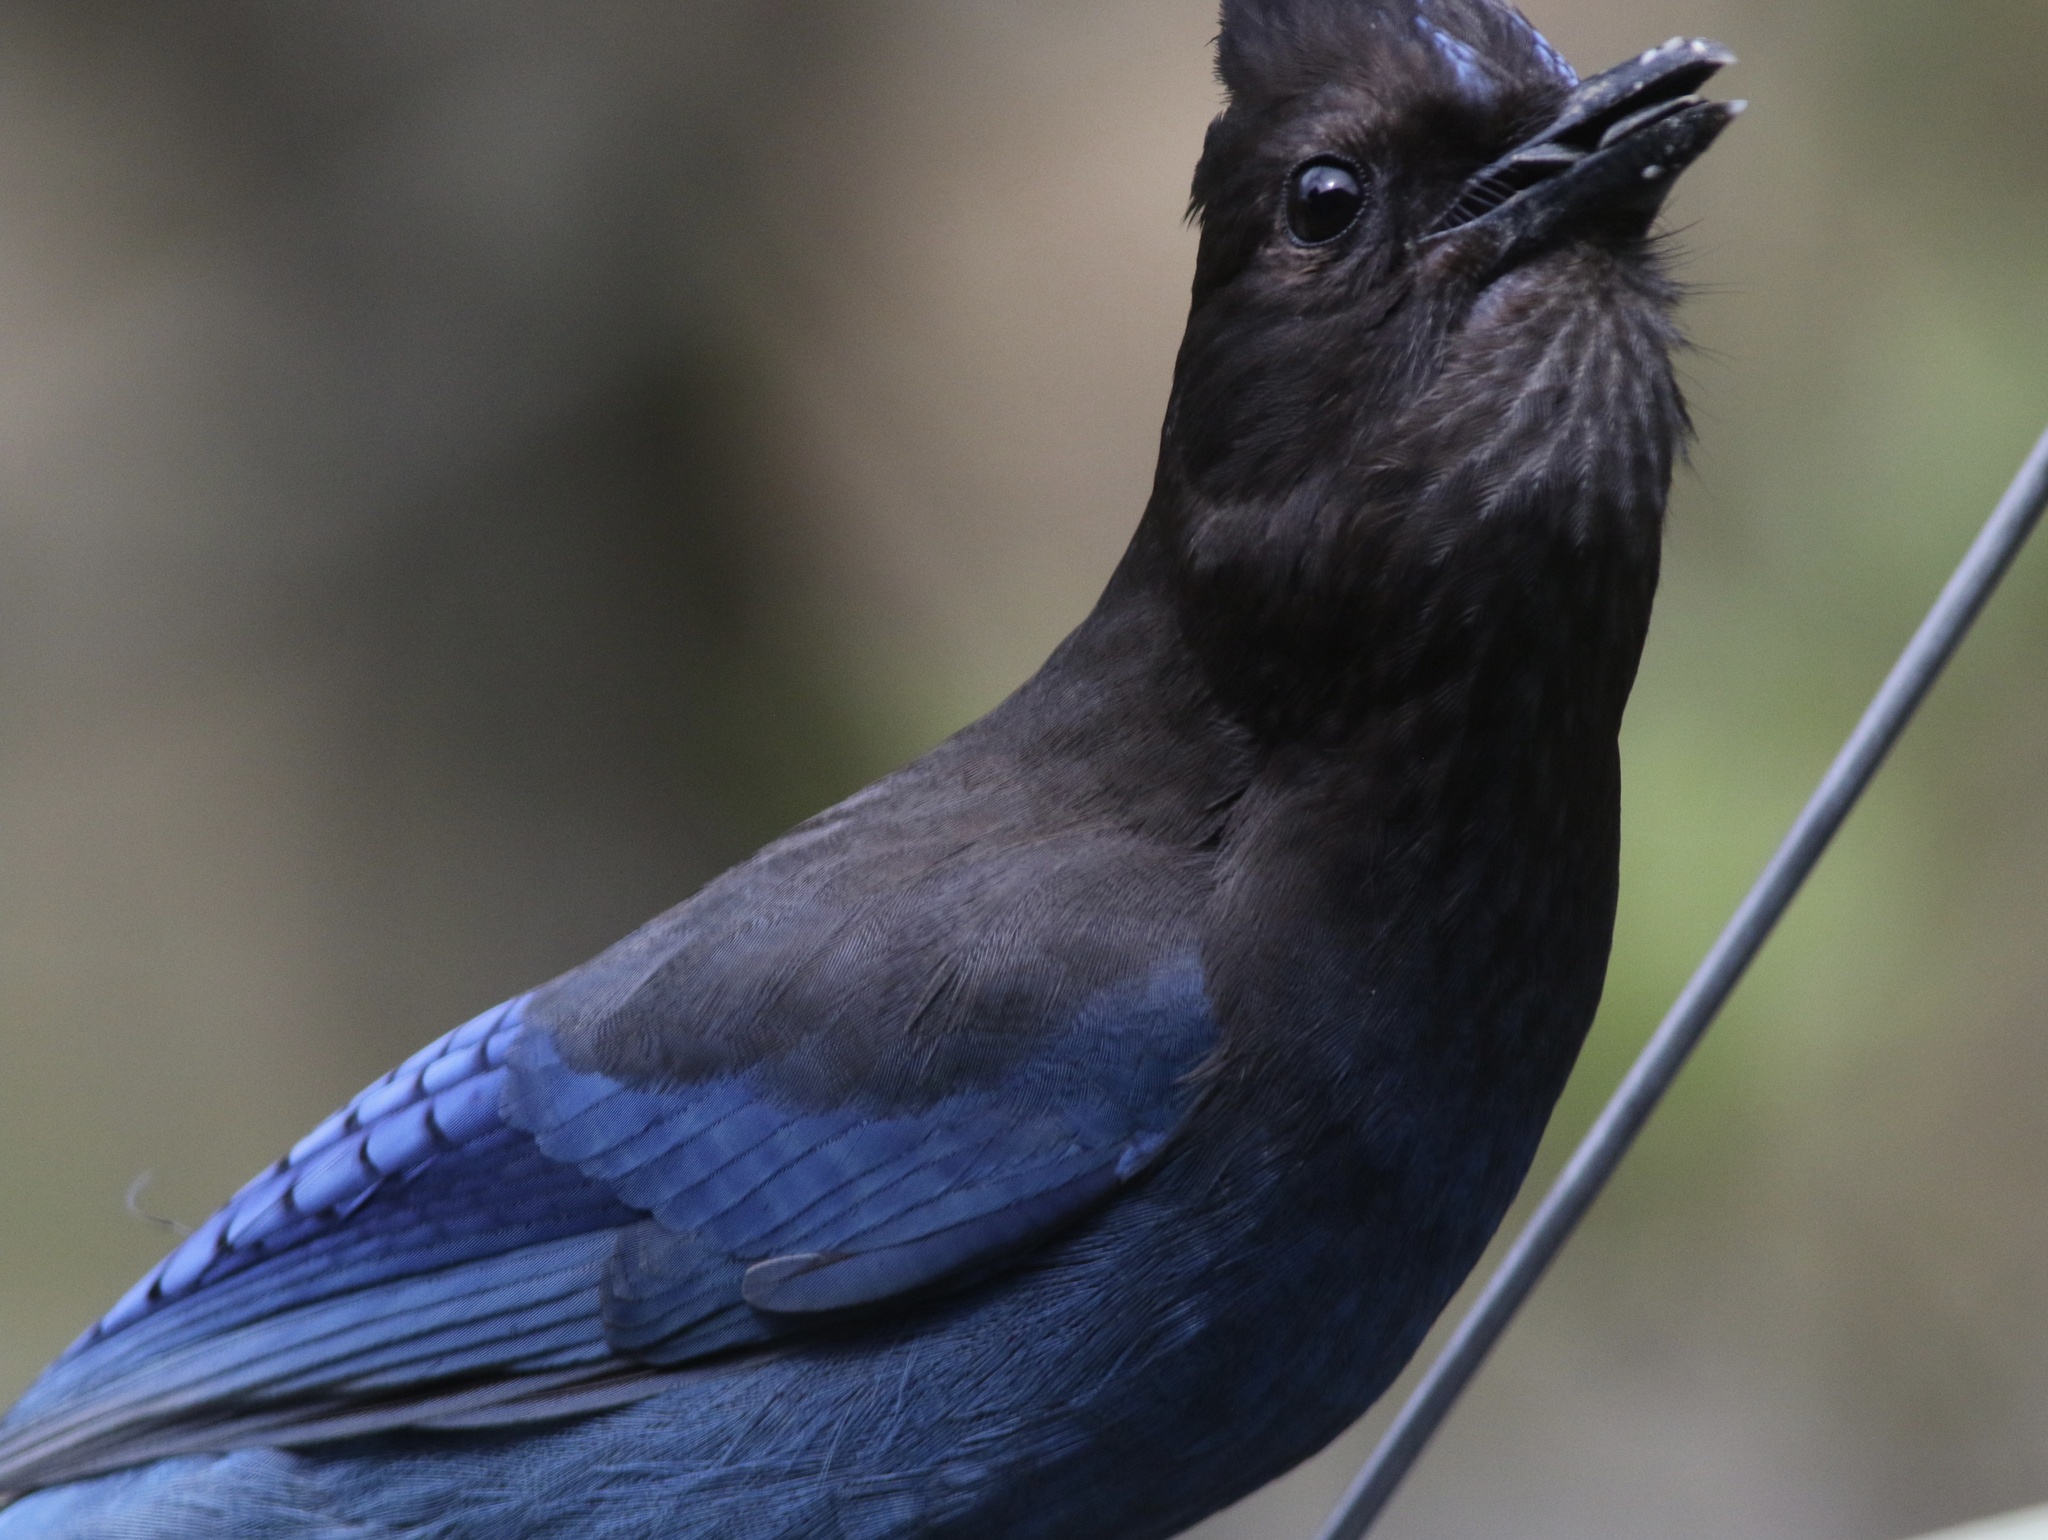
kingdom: Animalia
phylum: Chordata
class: Aves
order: Passeriformes
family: Corvidae
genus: Cyanocitta
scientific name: Cyanocitta stelleri
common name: Steller's jay
